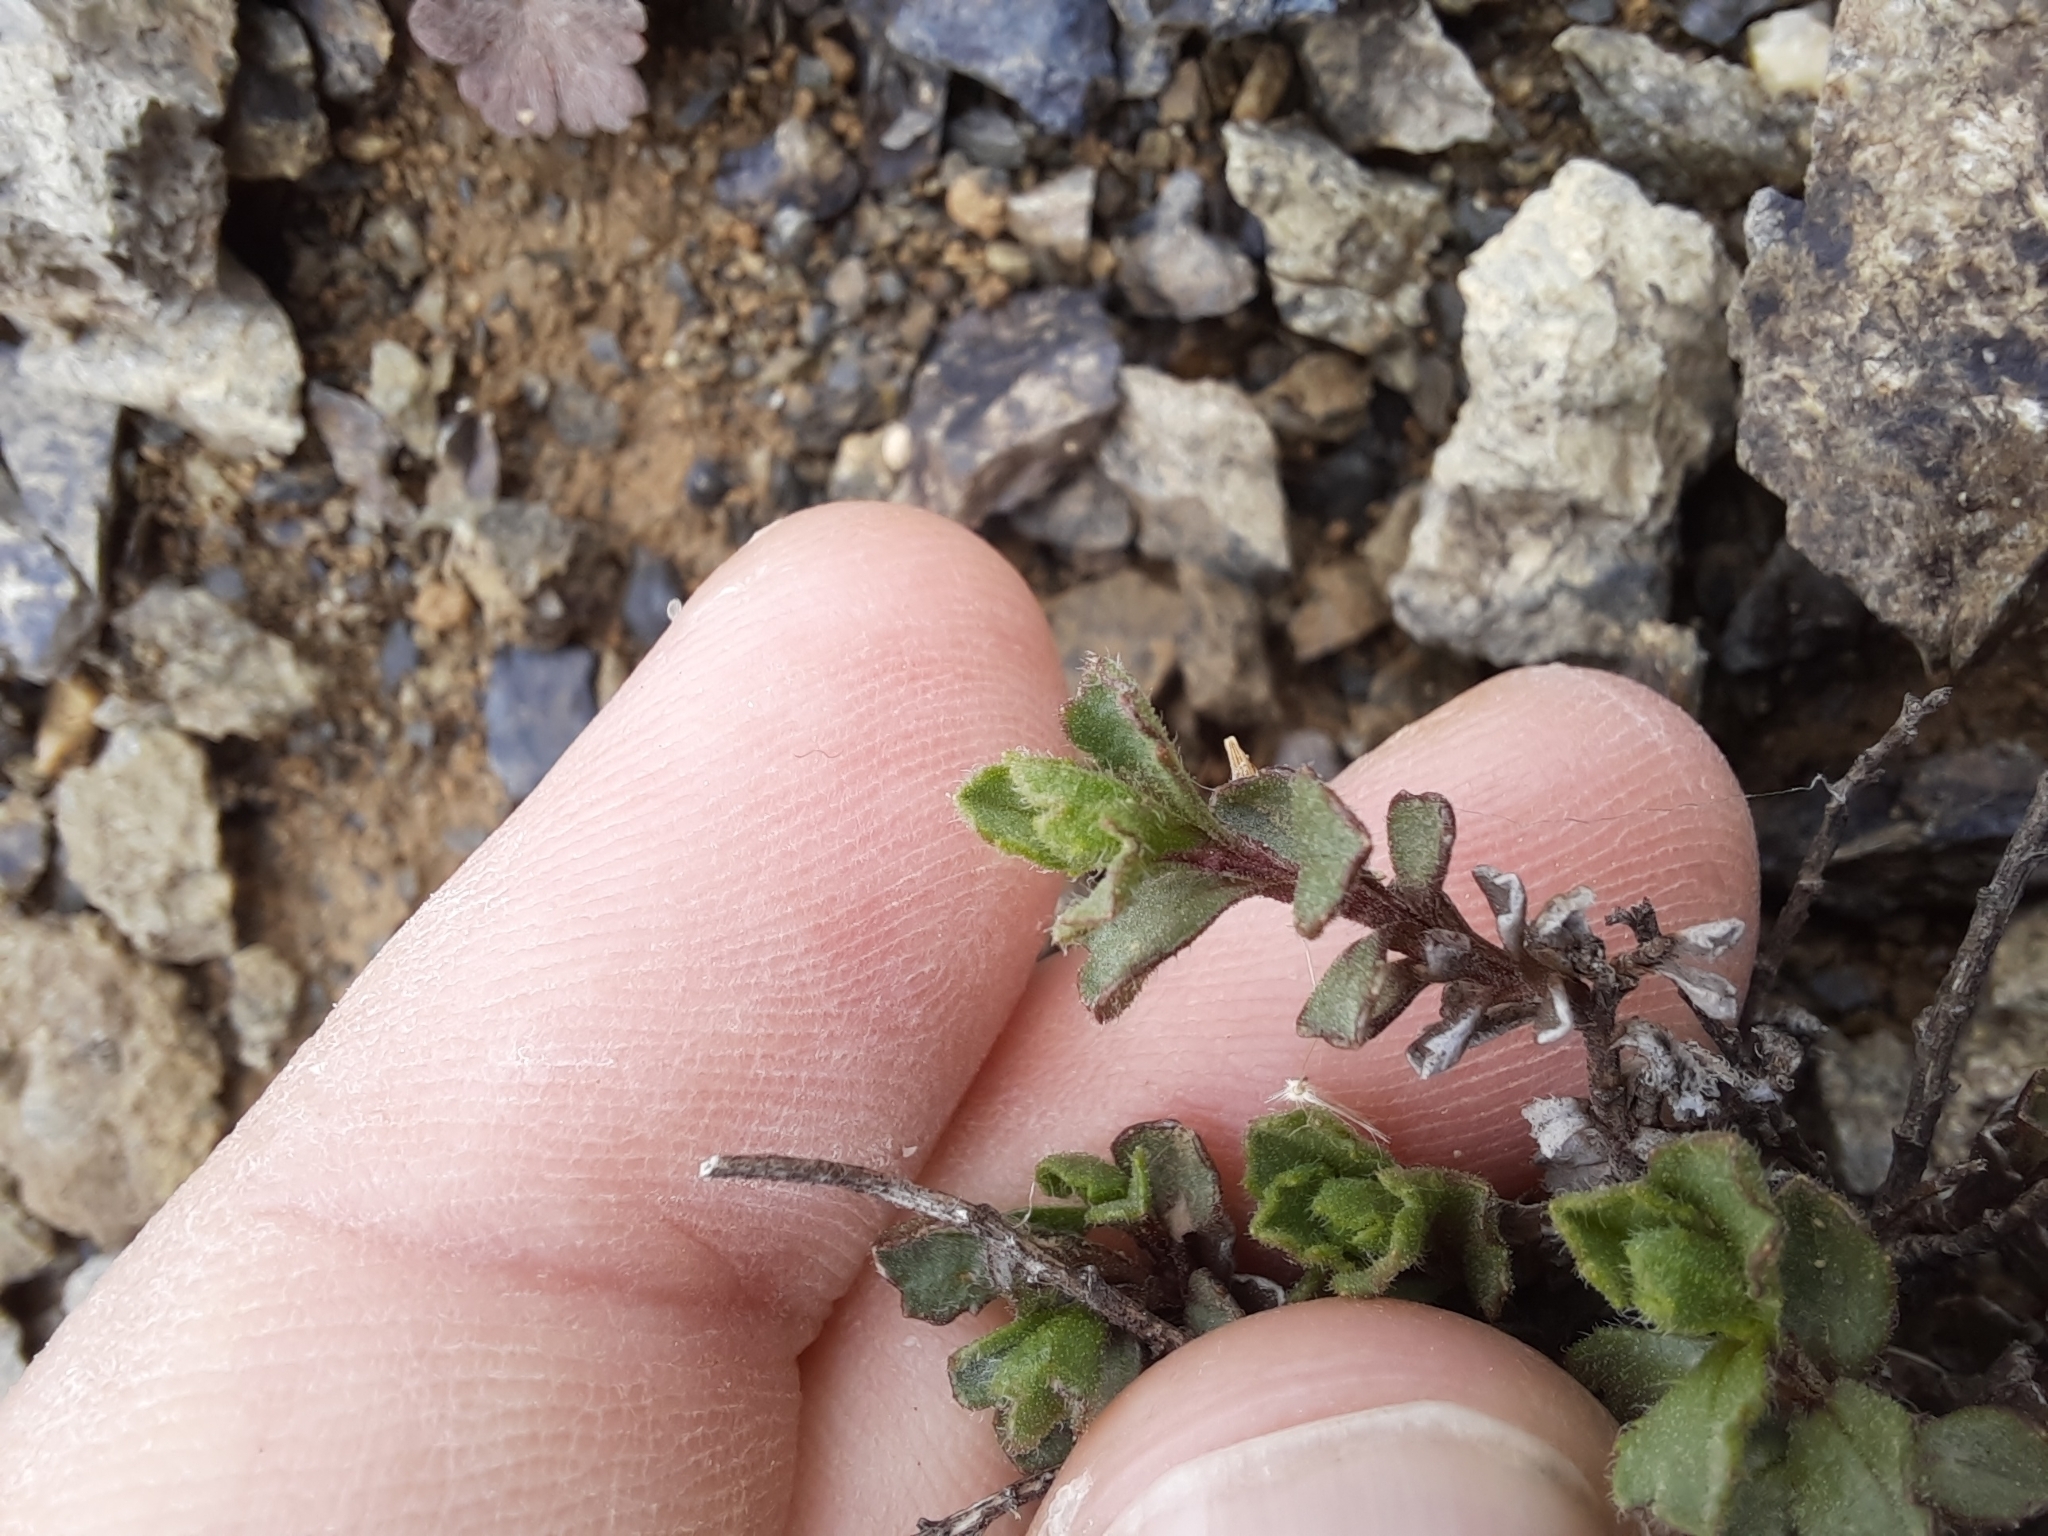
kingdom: Plantae
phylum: Tracheophyta
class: Magnoliopsida
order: Asterales
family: Asteraceae
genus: Vittadinia
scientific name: Vittadinia australis
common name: White fuzzweed
